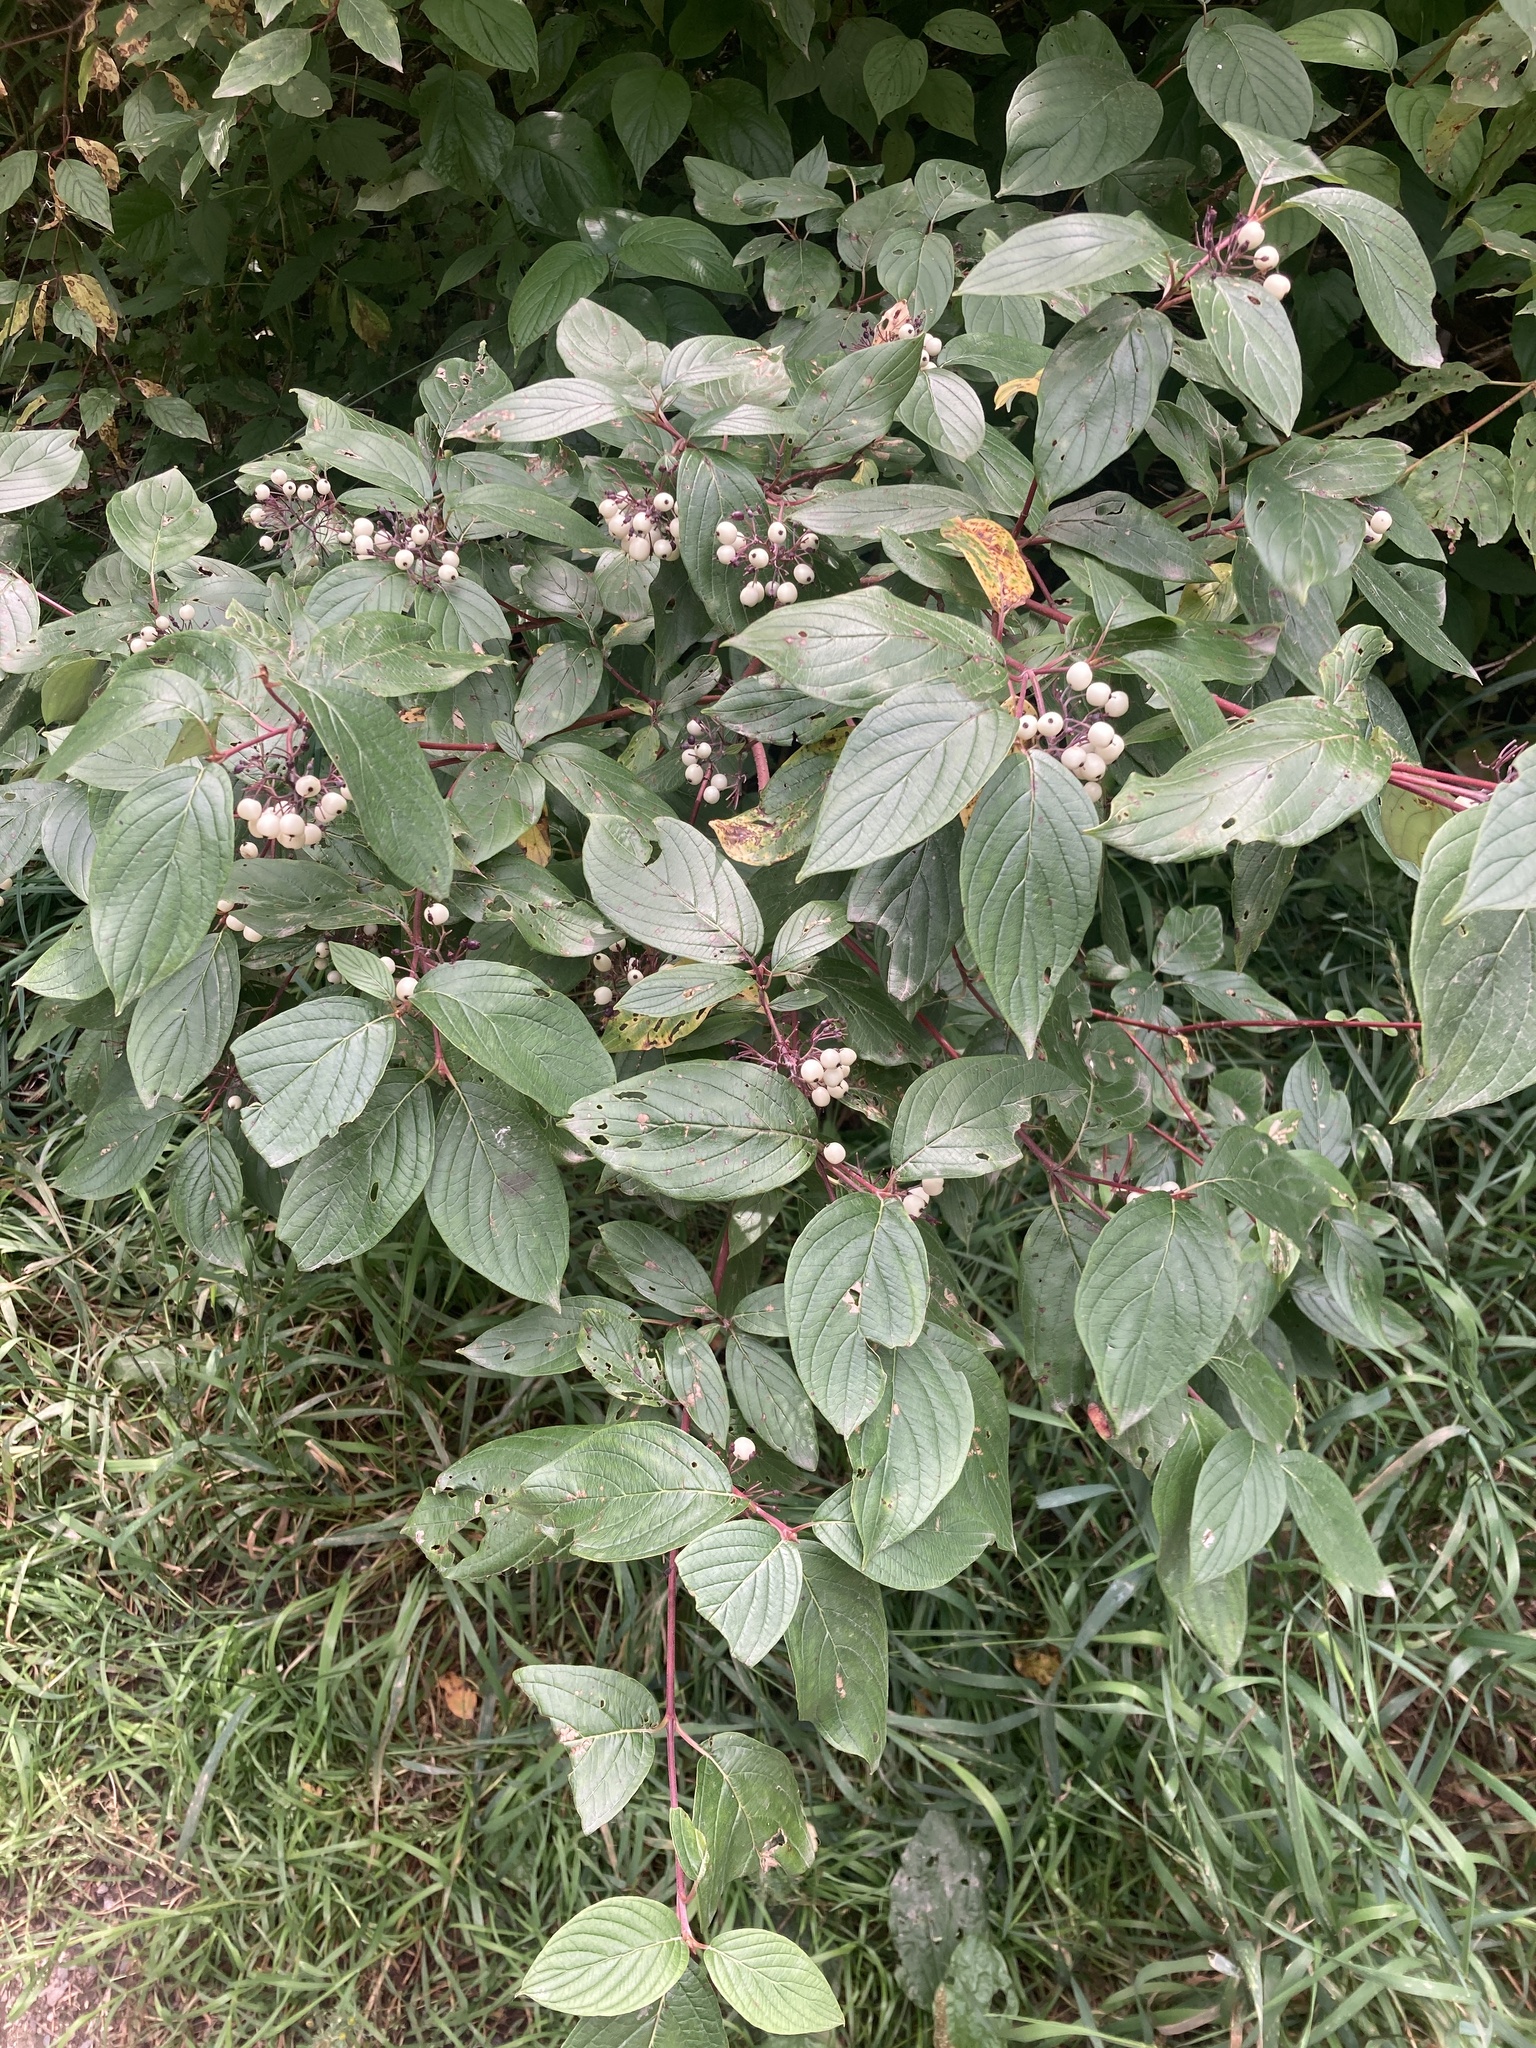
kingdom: Plantae
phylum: Tracheophyta
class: Magnoliopsida
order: Cornales
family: Cornaceae
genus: Cornus
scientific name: Cornus sericea
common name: Red-osier dogwood
